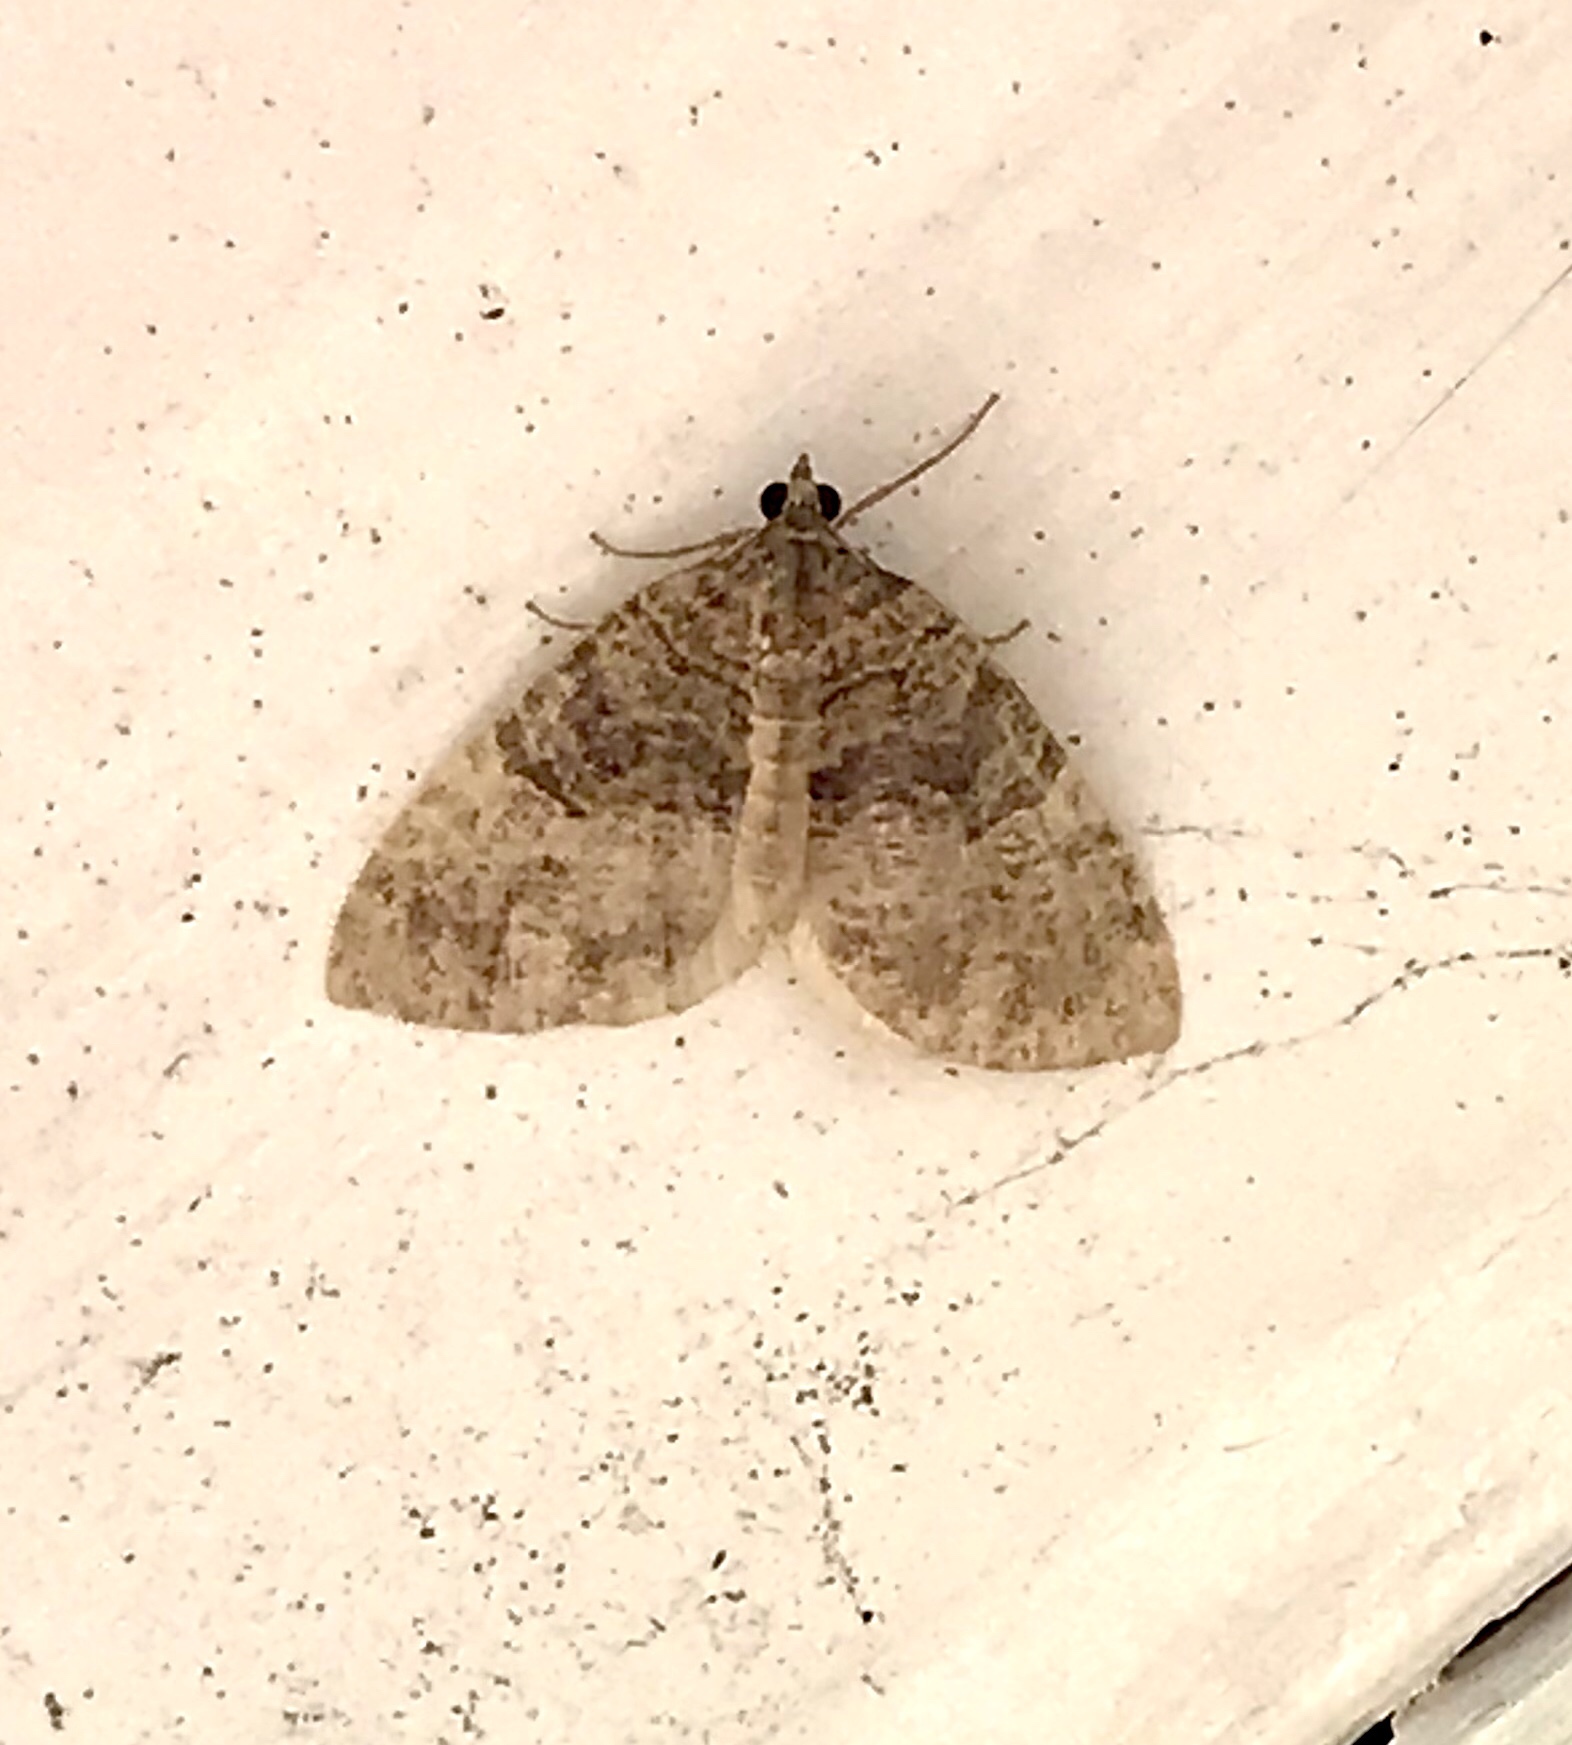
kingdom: Animalia
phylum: Arthropoda
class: Insecta
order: Lepidoptera
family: Geometridae
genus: Hydriomena
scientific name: Hydriomena furcata
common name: July highflyer
